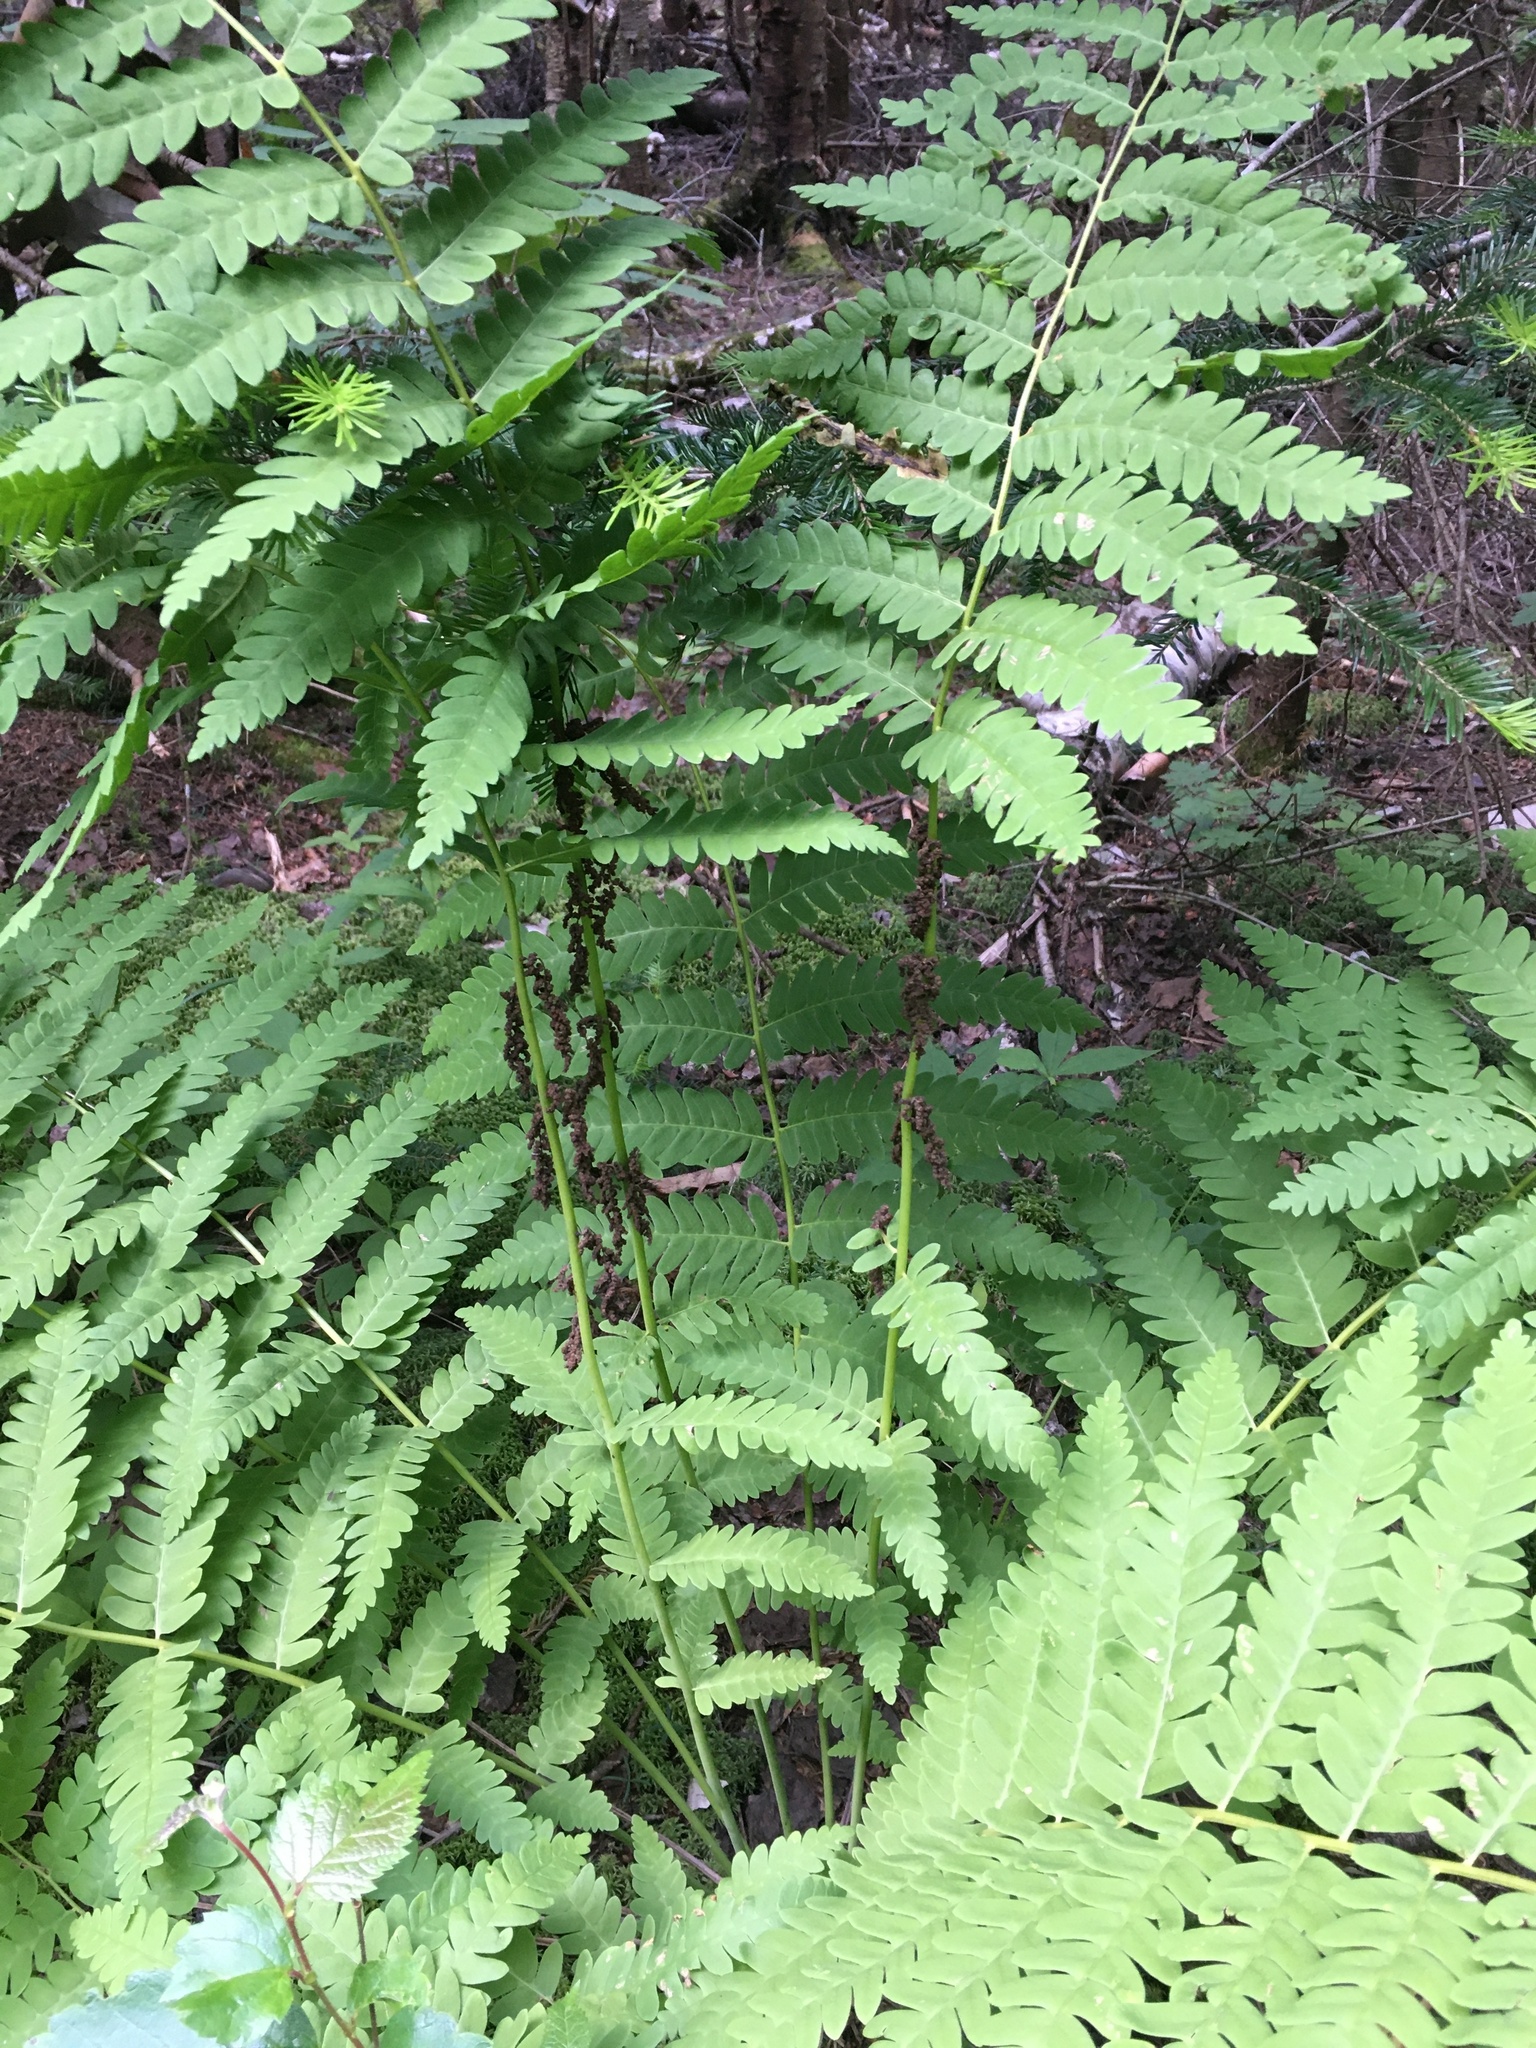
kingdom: Plantae
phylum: Tracheophyta
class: Polypodiopsida
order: Osmundales
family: Osmundaceae
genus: Claytosmunda
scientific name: Claytosmunda claytoniana
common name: Clayton's fern
